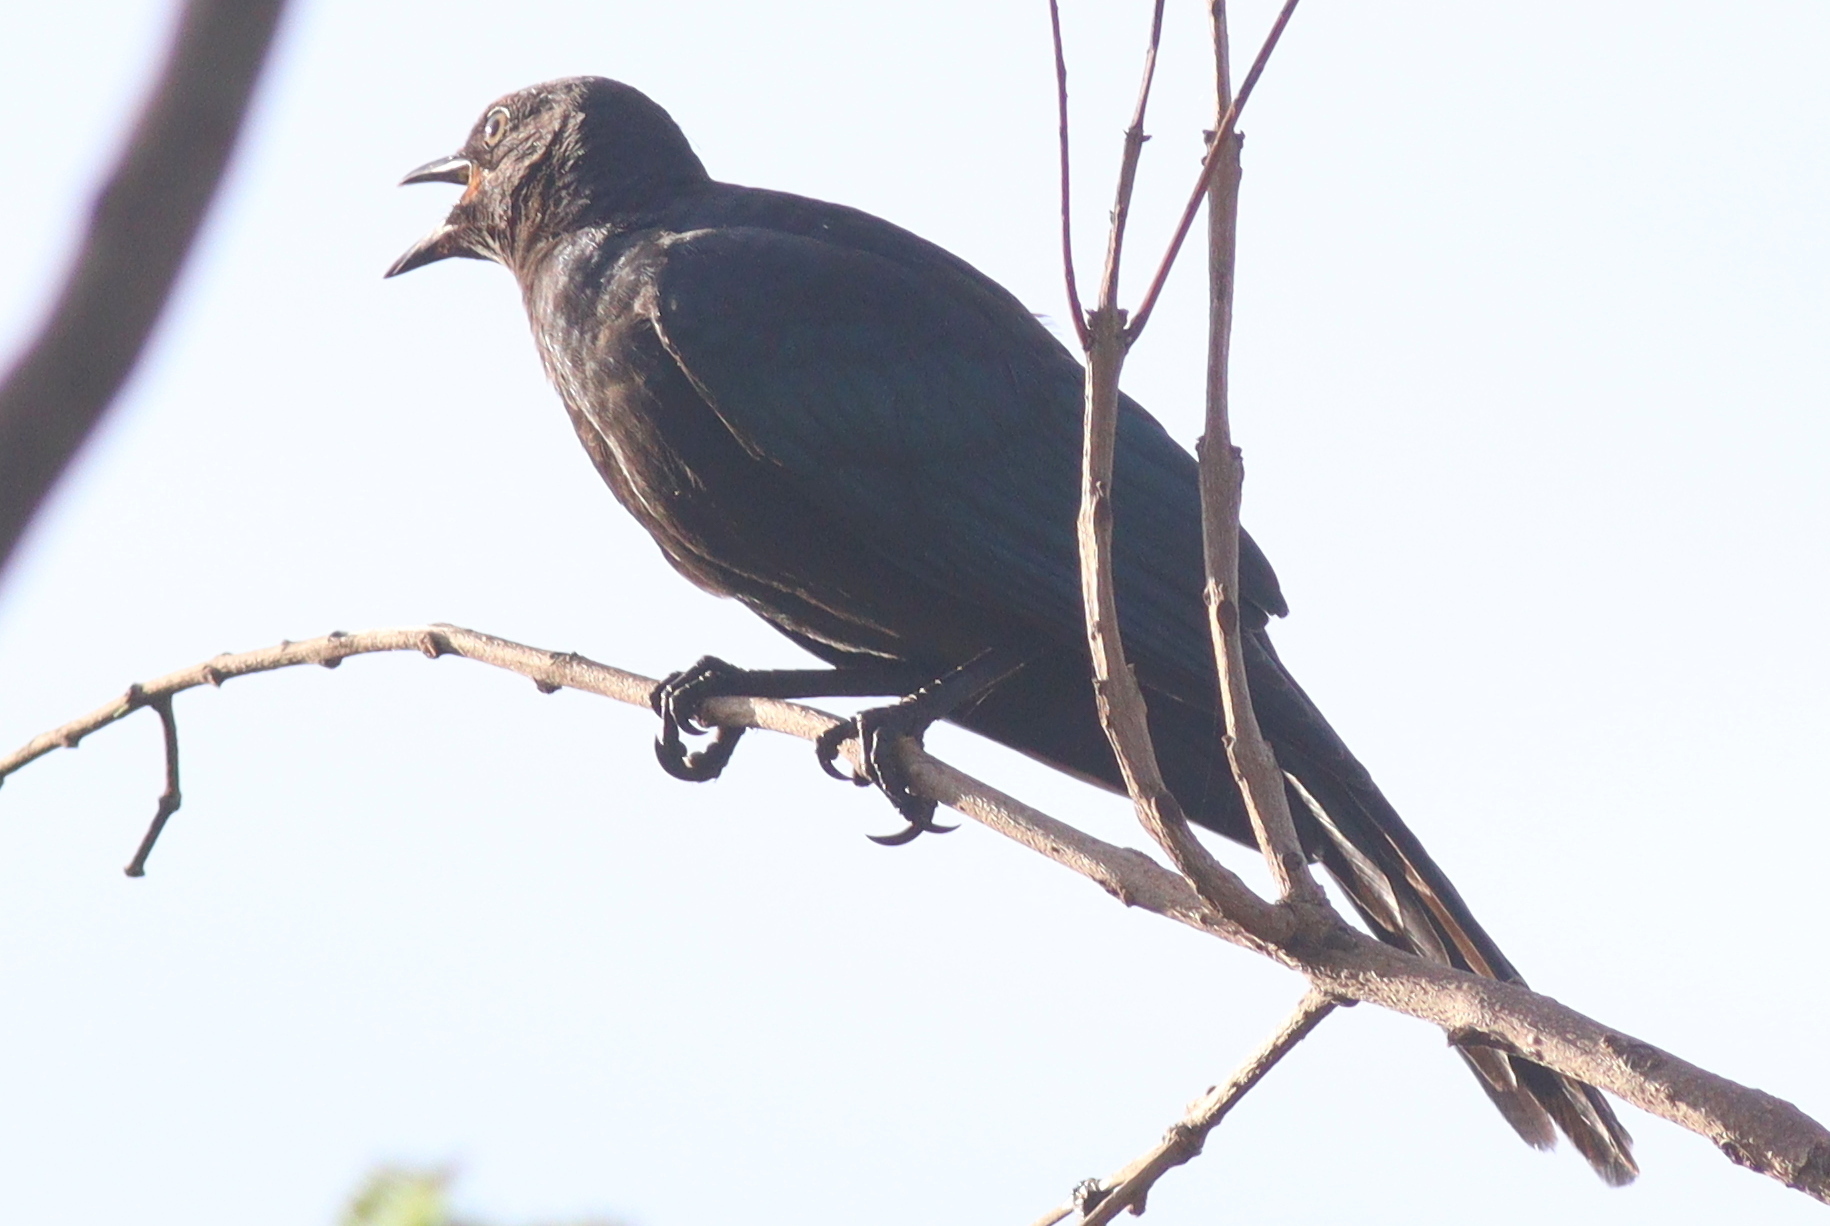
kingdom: Animalia
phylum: Chordata
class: Aves
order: Passeriformes
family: Campephagidae
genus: Campephaga
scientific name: Campephaga flava
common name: Black cuckooshrike
